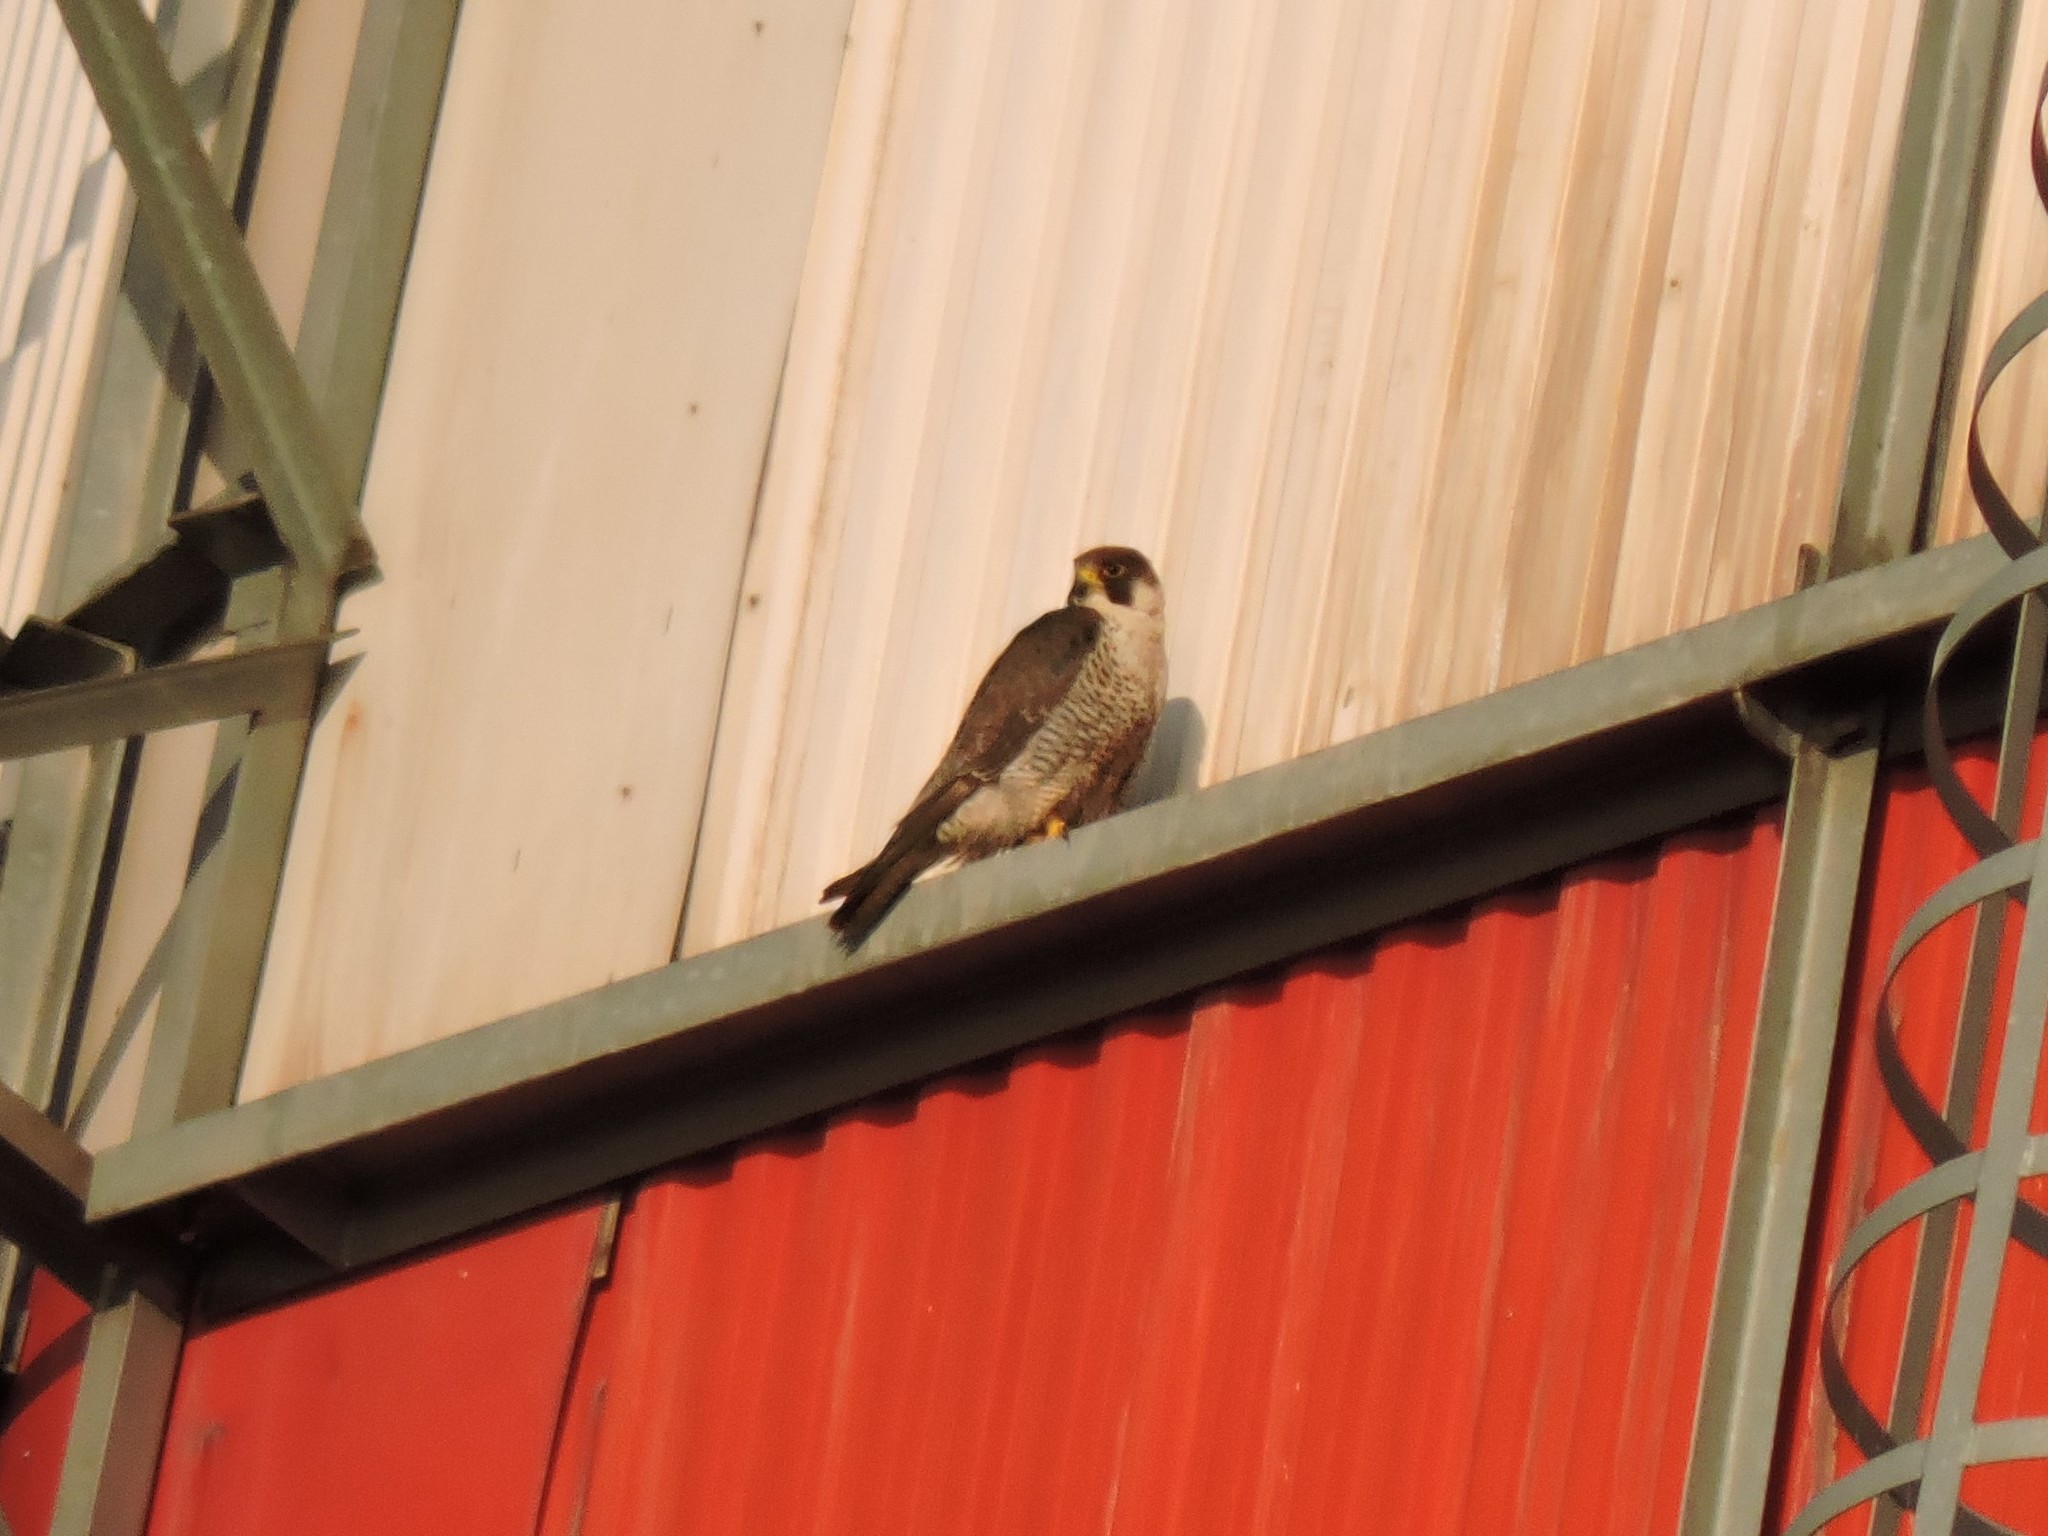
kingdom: Animalia
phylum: Chordata
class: Aves
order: Falconiformes
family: Falconidae
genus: Falco
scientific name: Falco peregrinus
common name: Peregrine falcon
